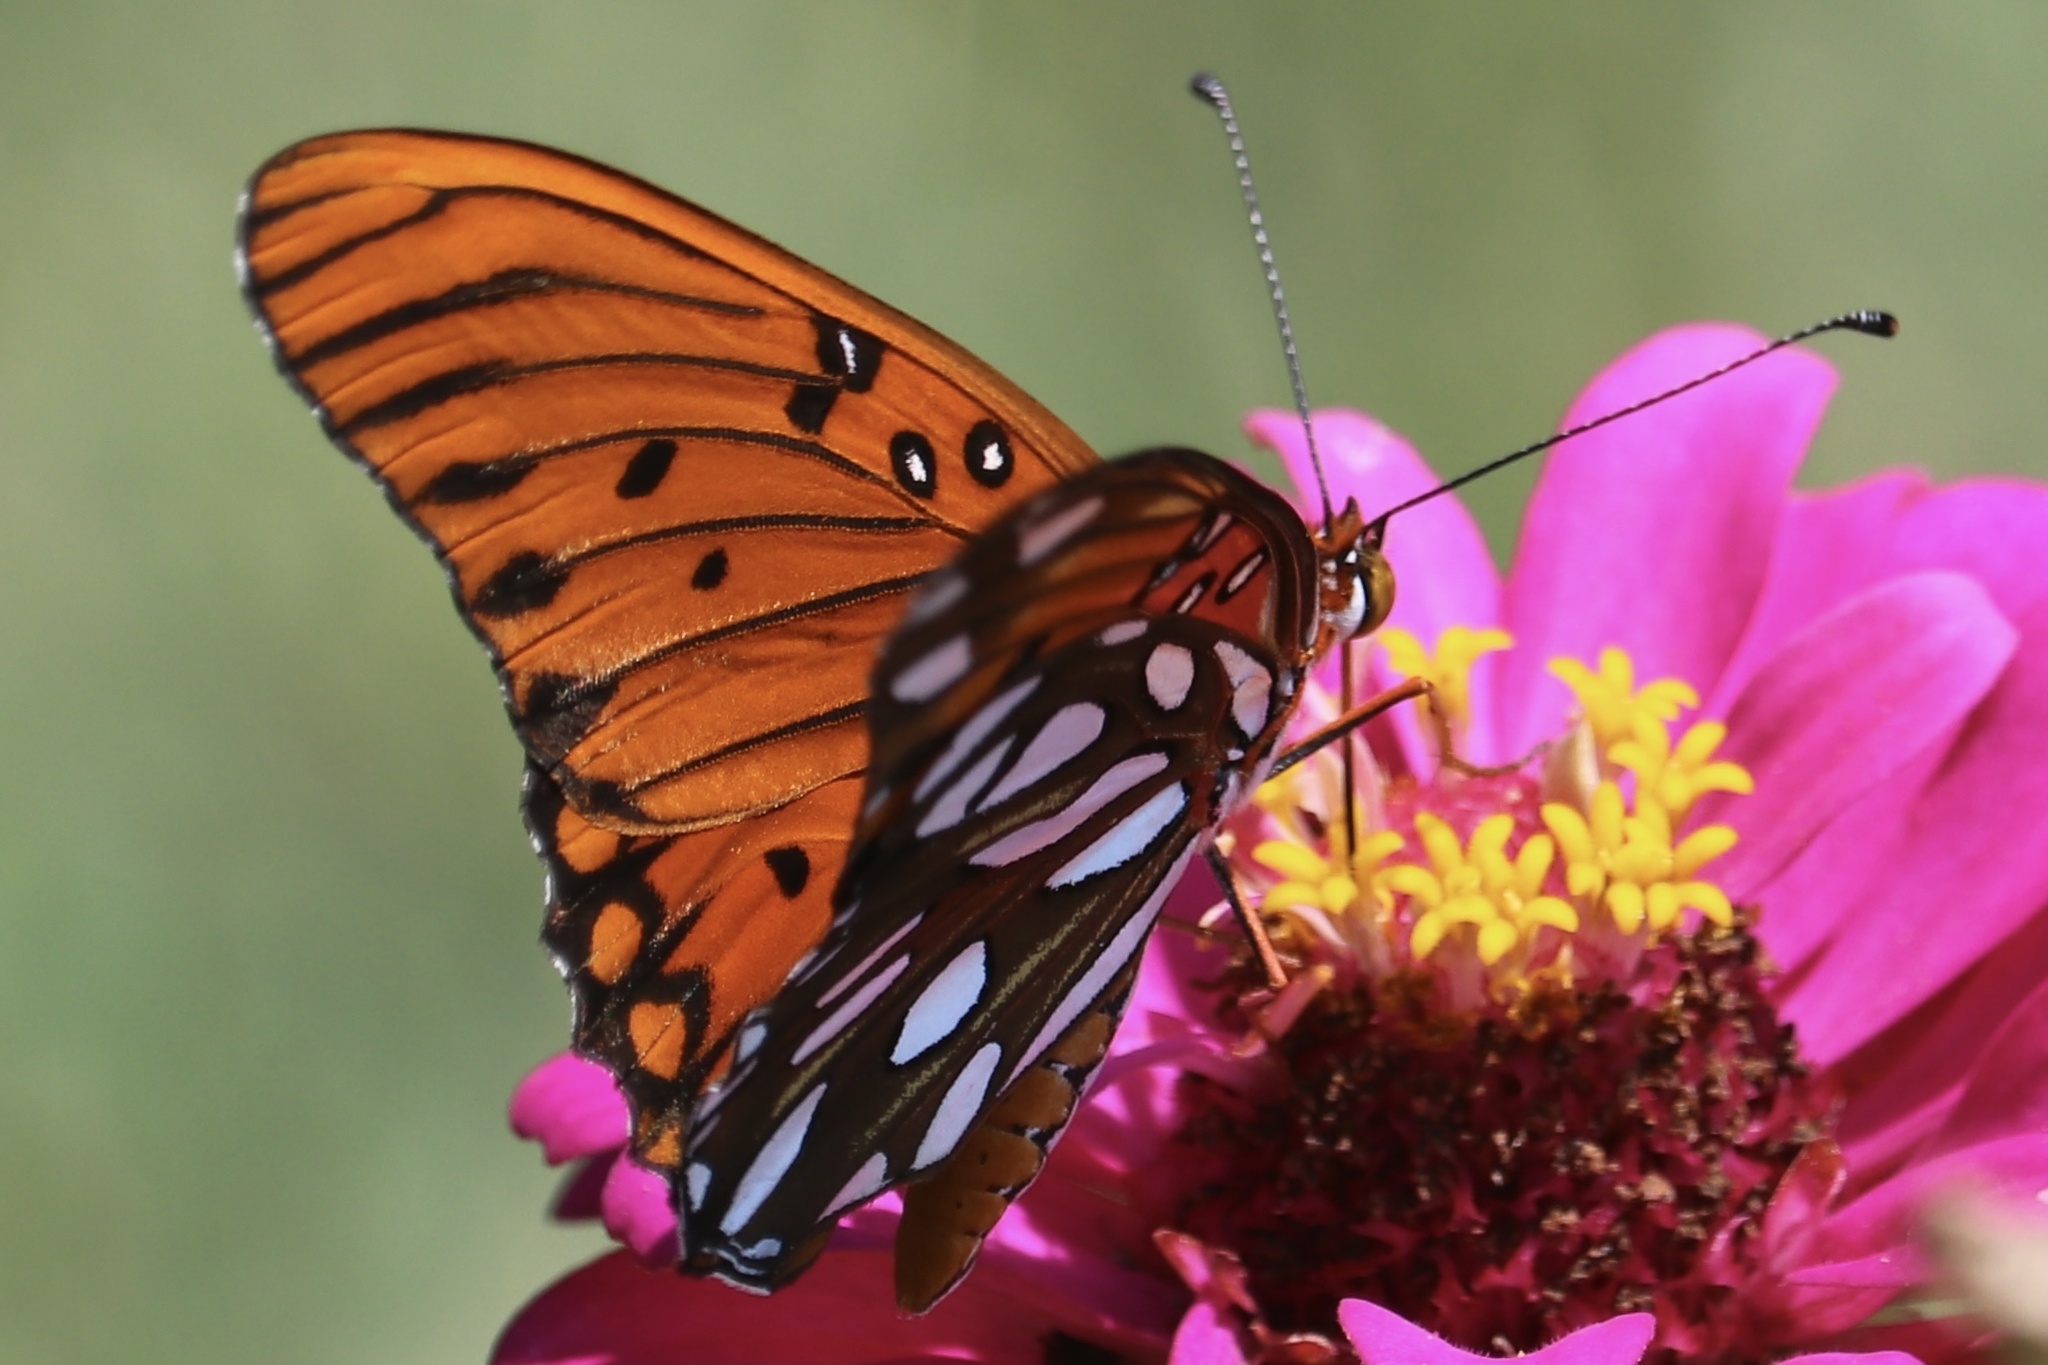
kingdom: Animalia
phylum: Arthropoda
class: Insecta
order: Lepidoptera
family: Nymphalidae
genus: Dione
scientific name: Dione vanillae
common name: Gulf fritillary
